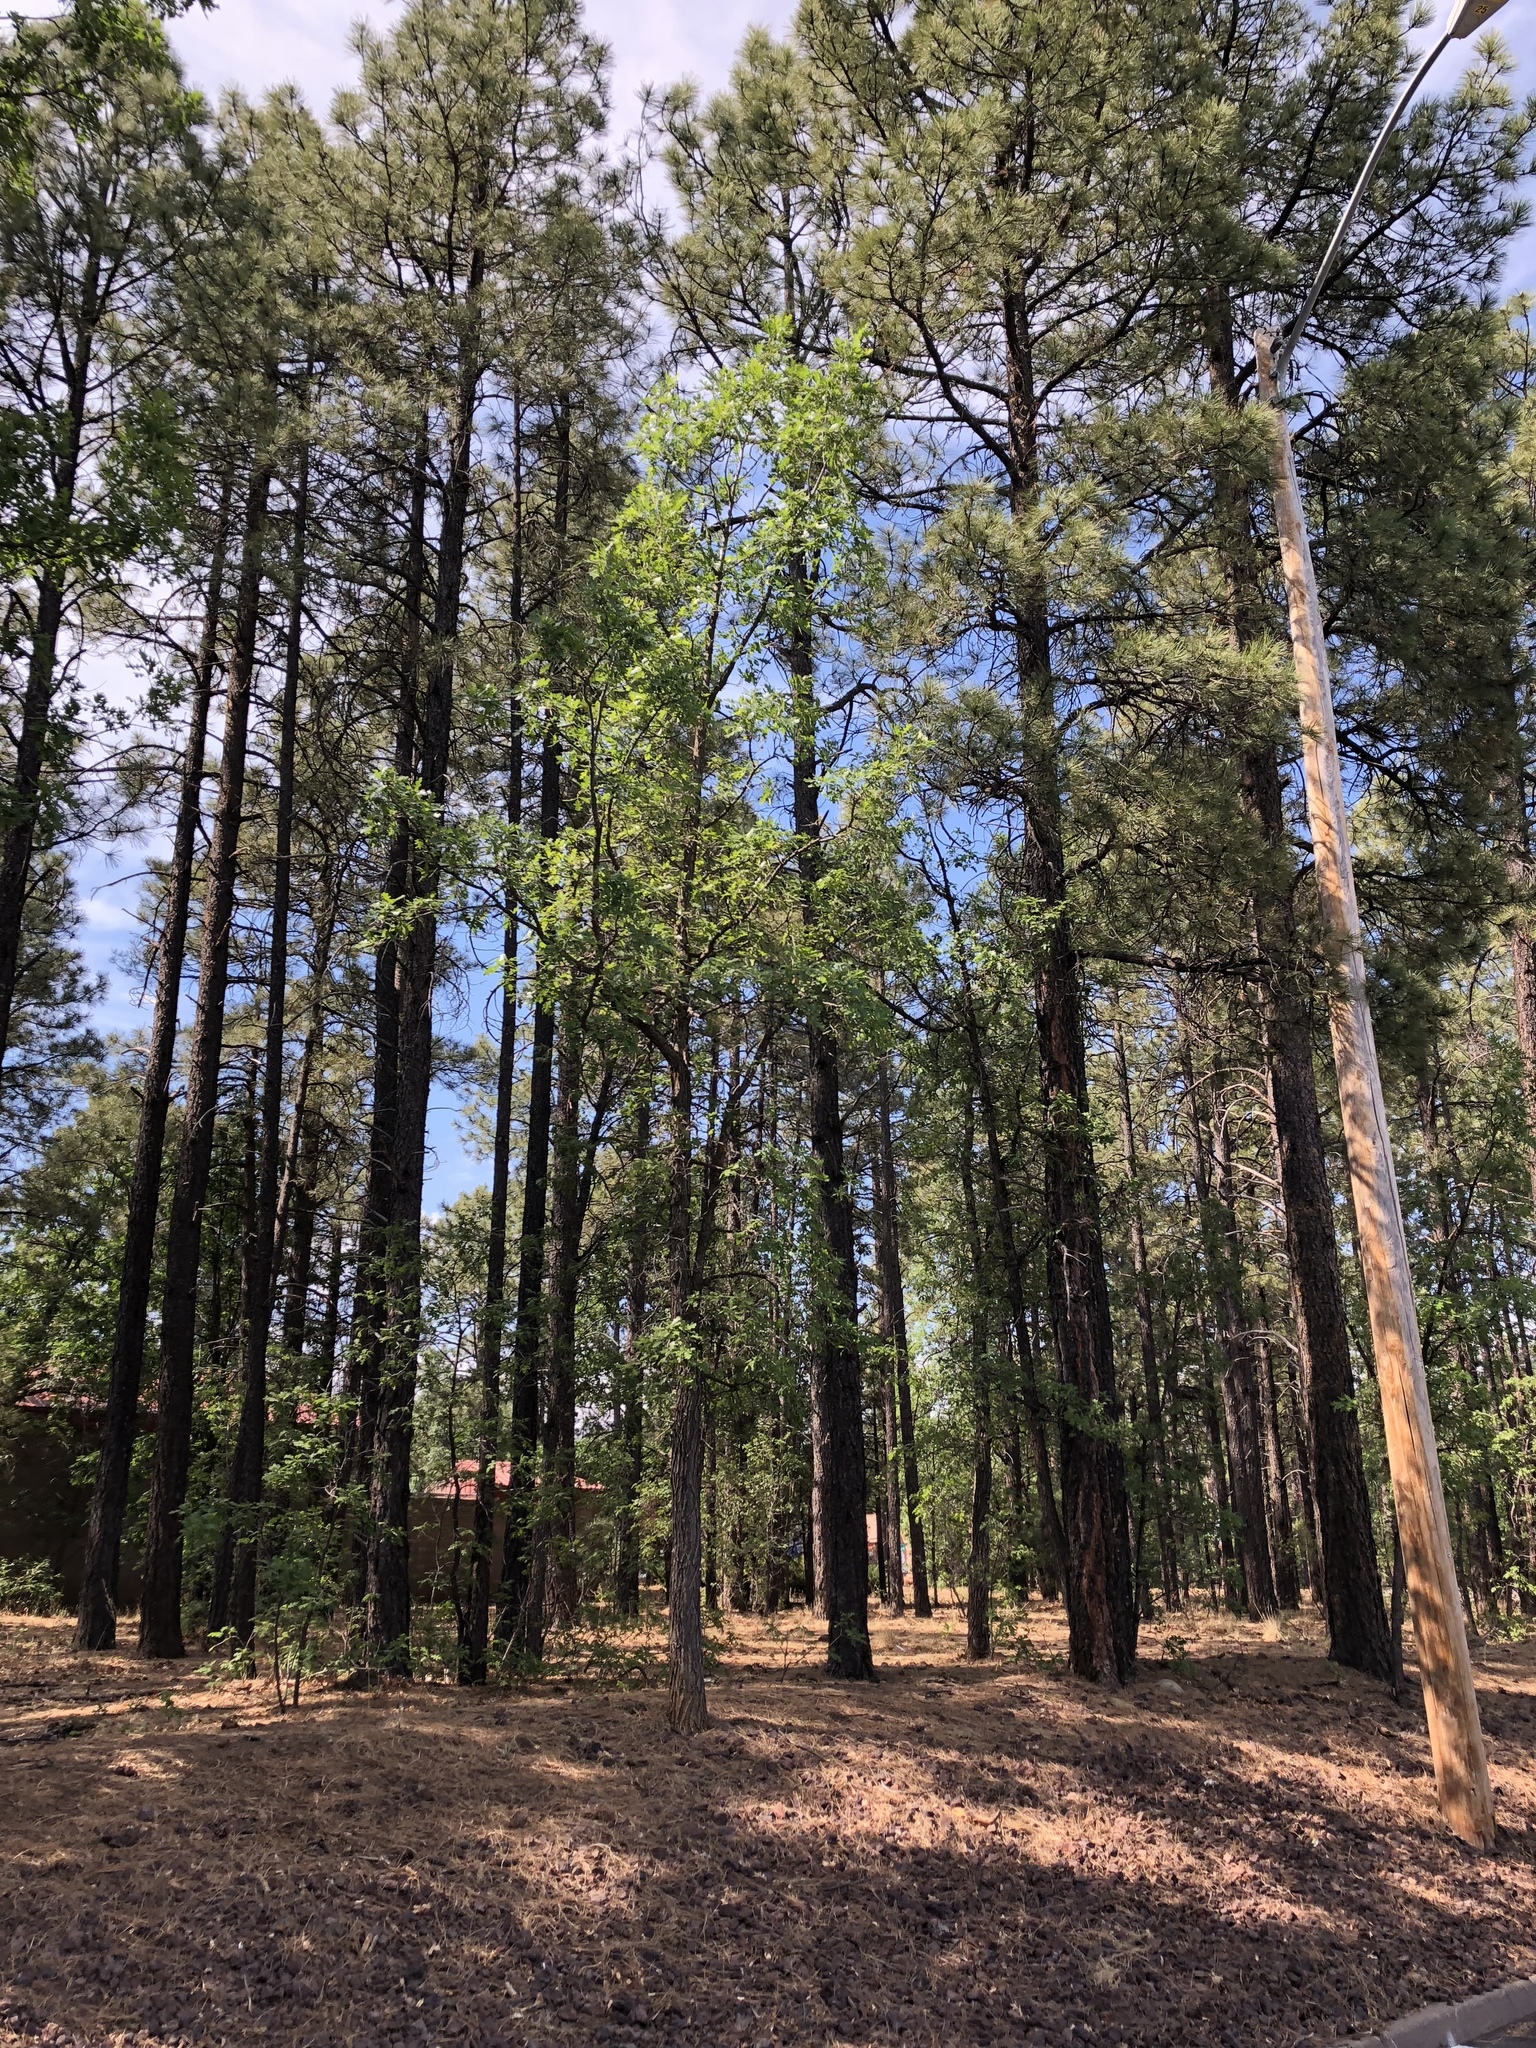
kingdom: Plantae
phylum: Tracheophyta
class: Magnoliopsida
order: Fagales
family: Fagaceae
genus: Quercus
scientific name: Quercus gambelii
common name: Gambel oak
